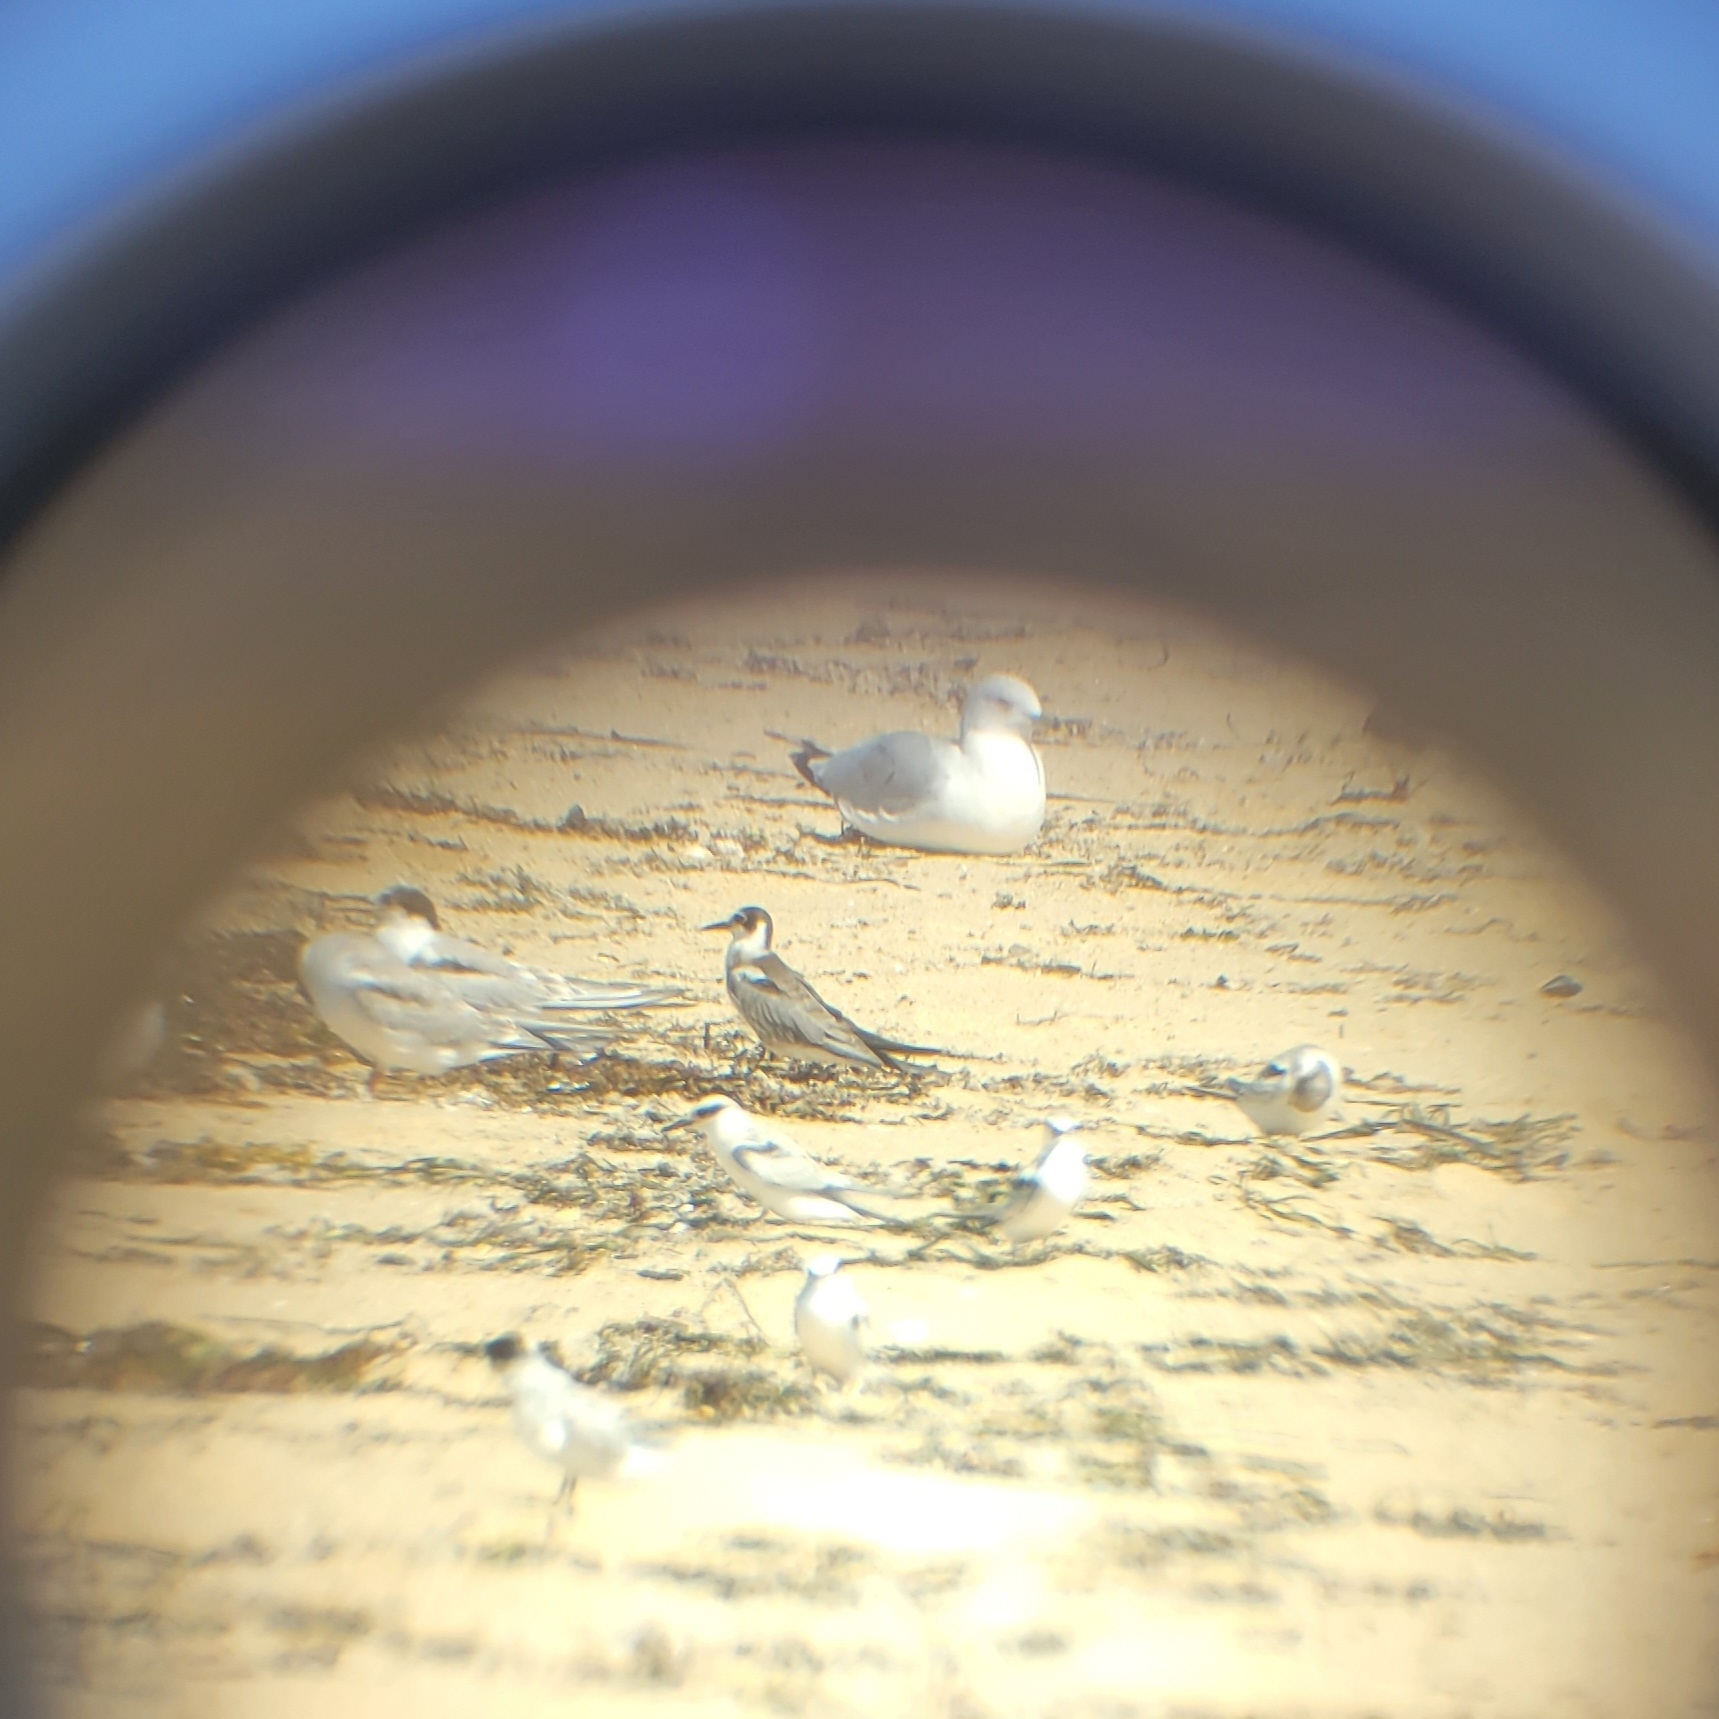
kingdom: Animalia
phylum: Chordata
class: Aves
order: Charadriiformes
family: Laridae
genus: Chlidonias
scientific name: Chlidonias niger
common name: Black tern
